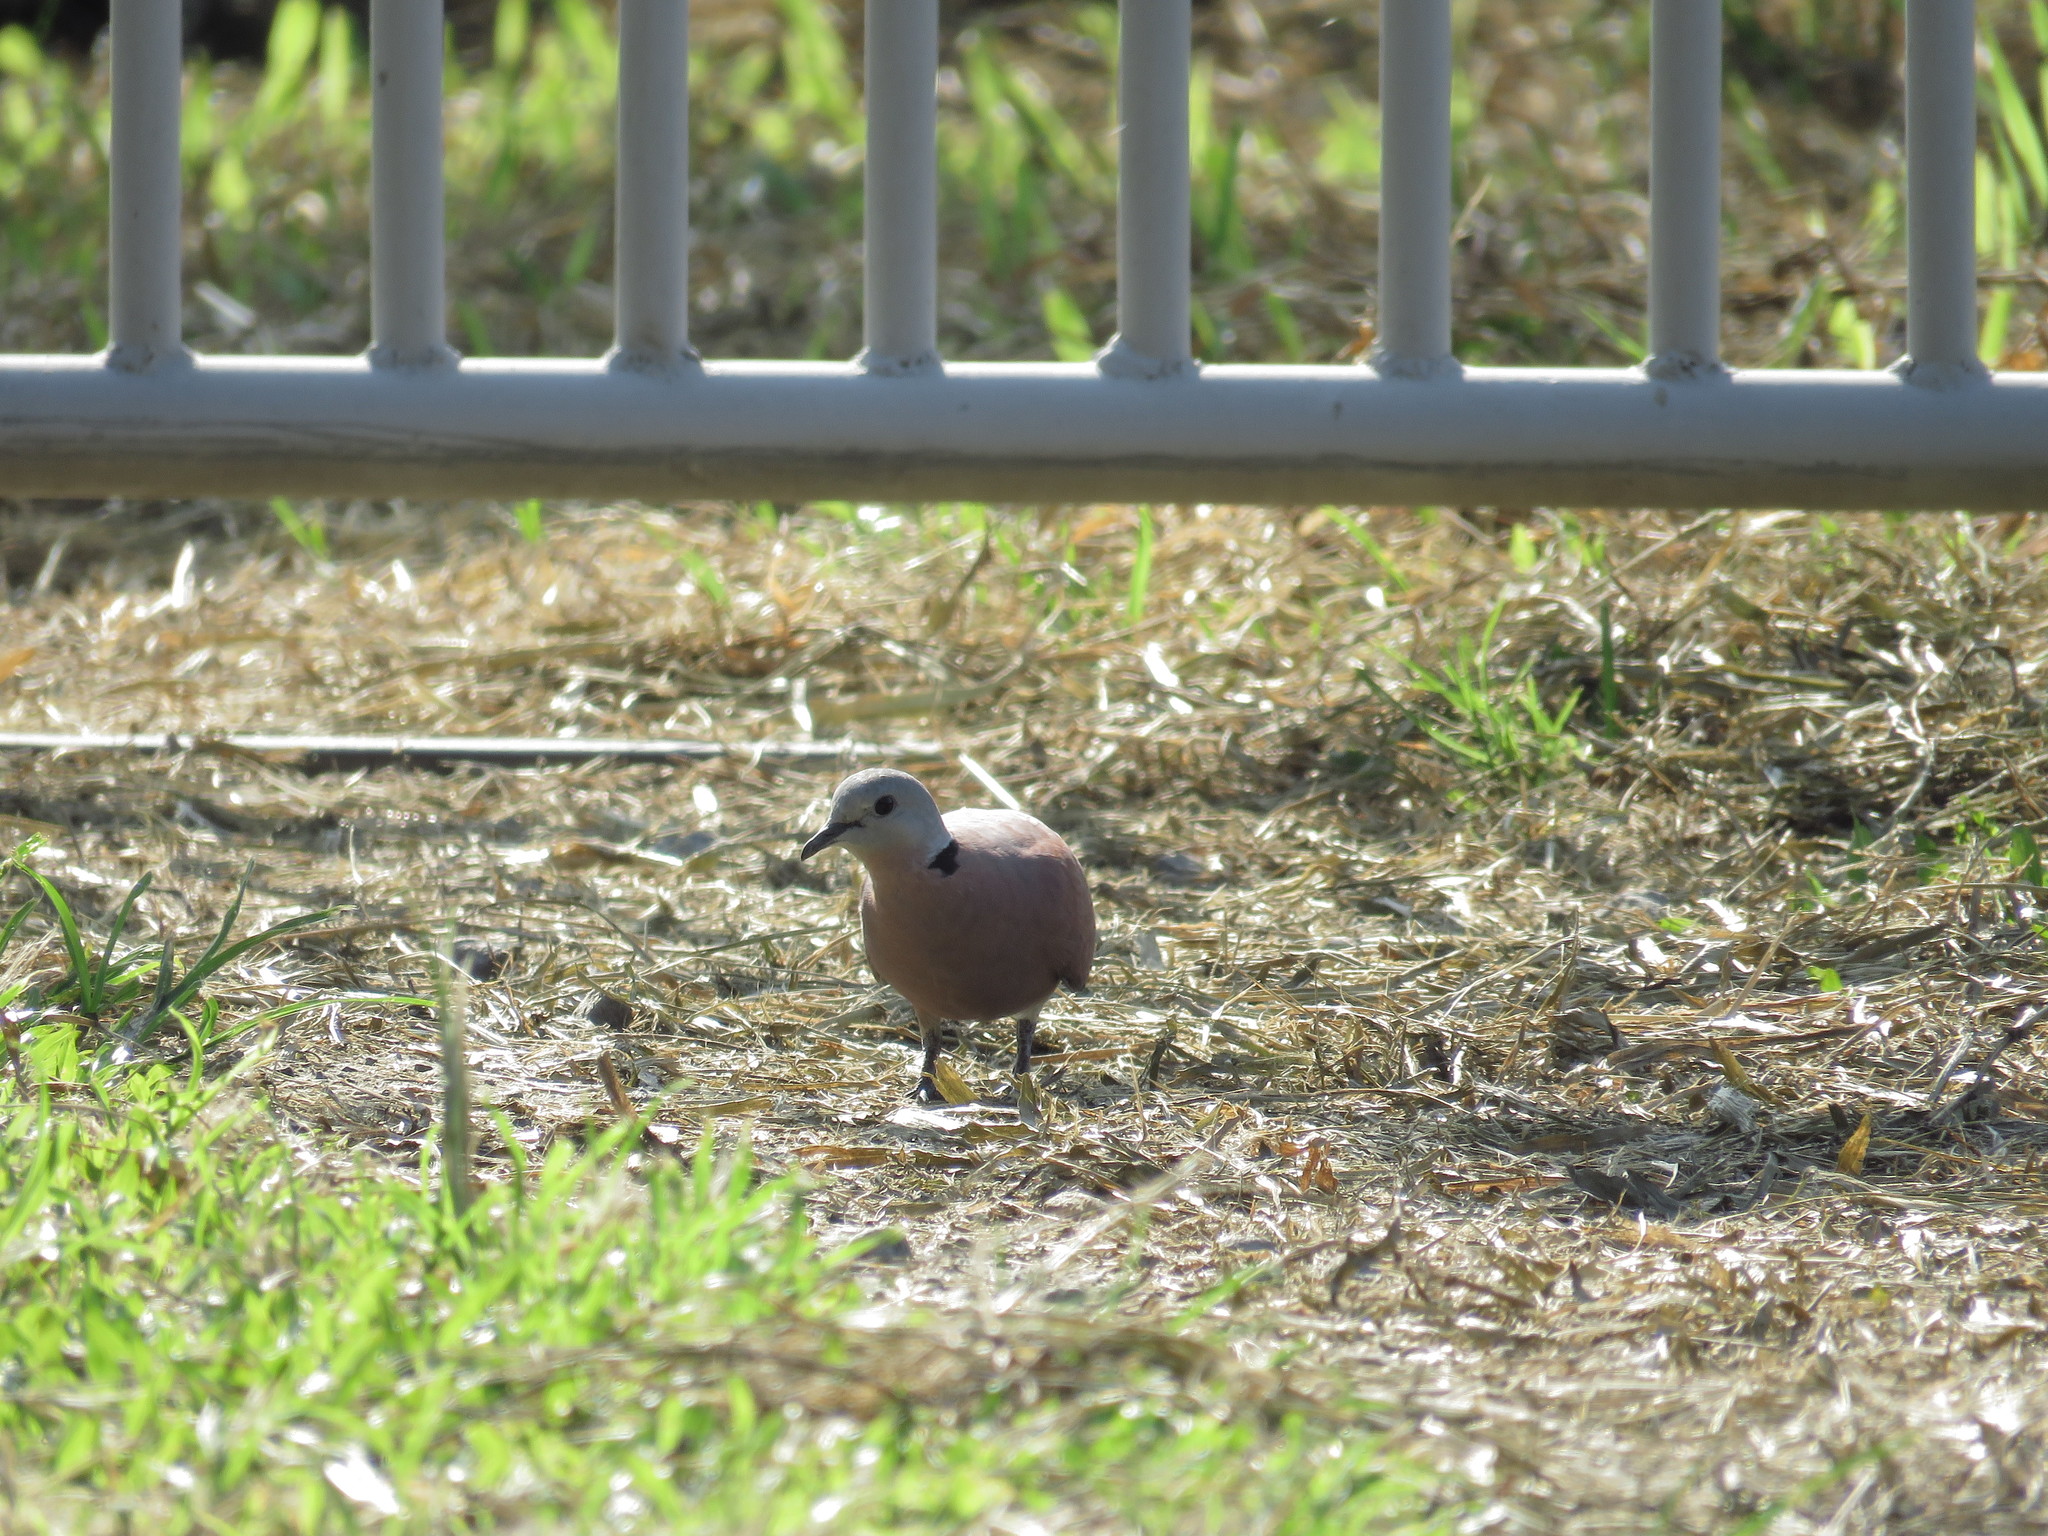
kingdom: Animalia
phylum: Chordata
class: Aves
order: Columbiformes
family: Columbidae
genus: Streptopelia
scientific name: Streptopelia tranquebarica
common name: Red turtle dove
